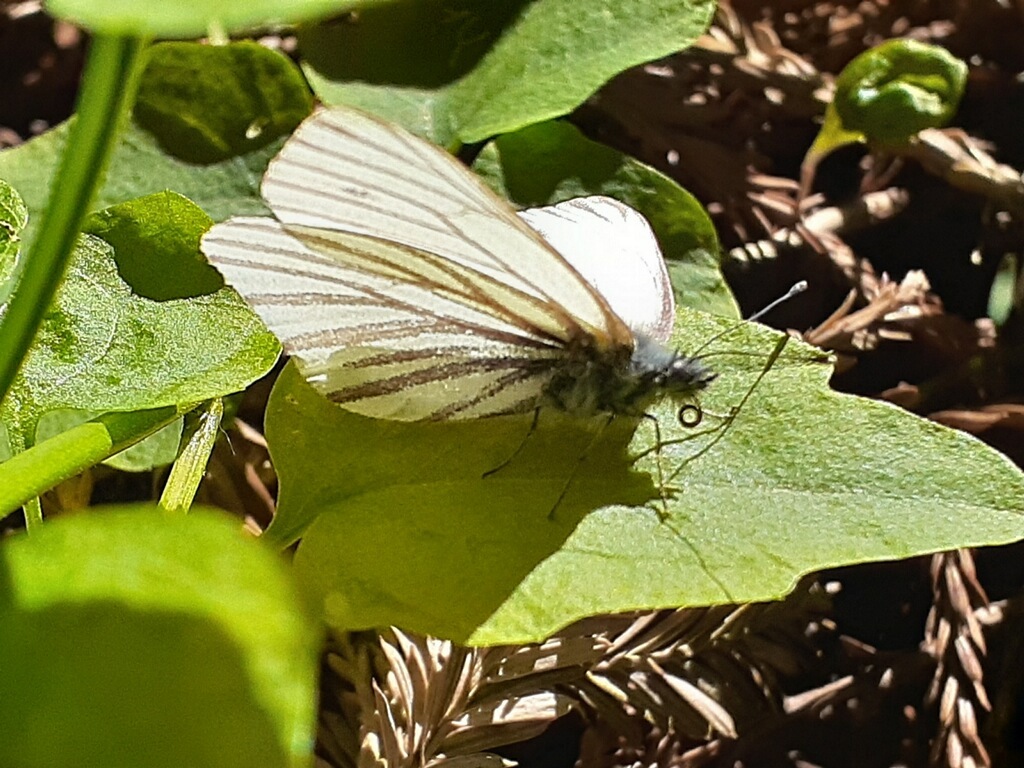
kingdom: Animalia
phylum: Arthropoda
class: Insecta
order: Lepidoptera
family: Pieridae
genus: Pieris
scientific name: Pieris marginalis
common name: Margined white
